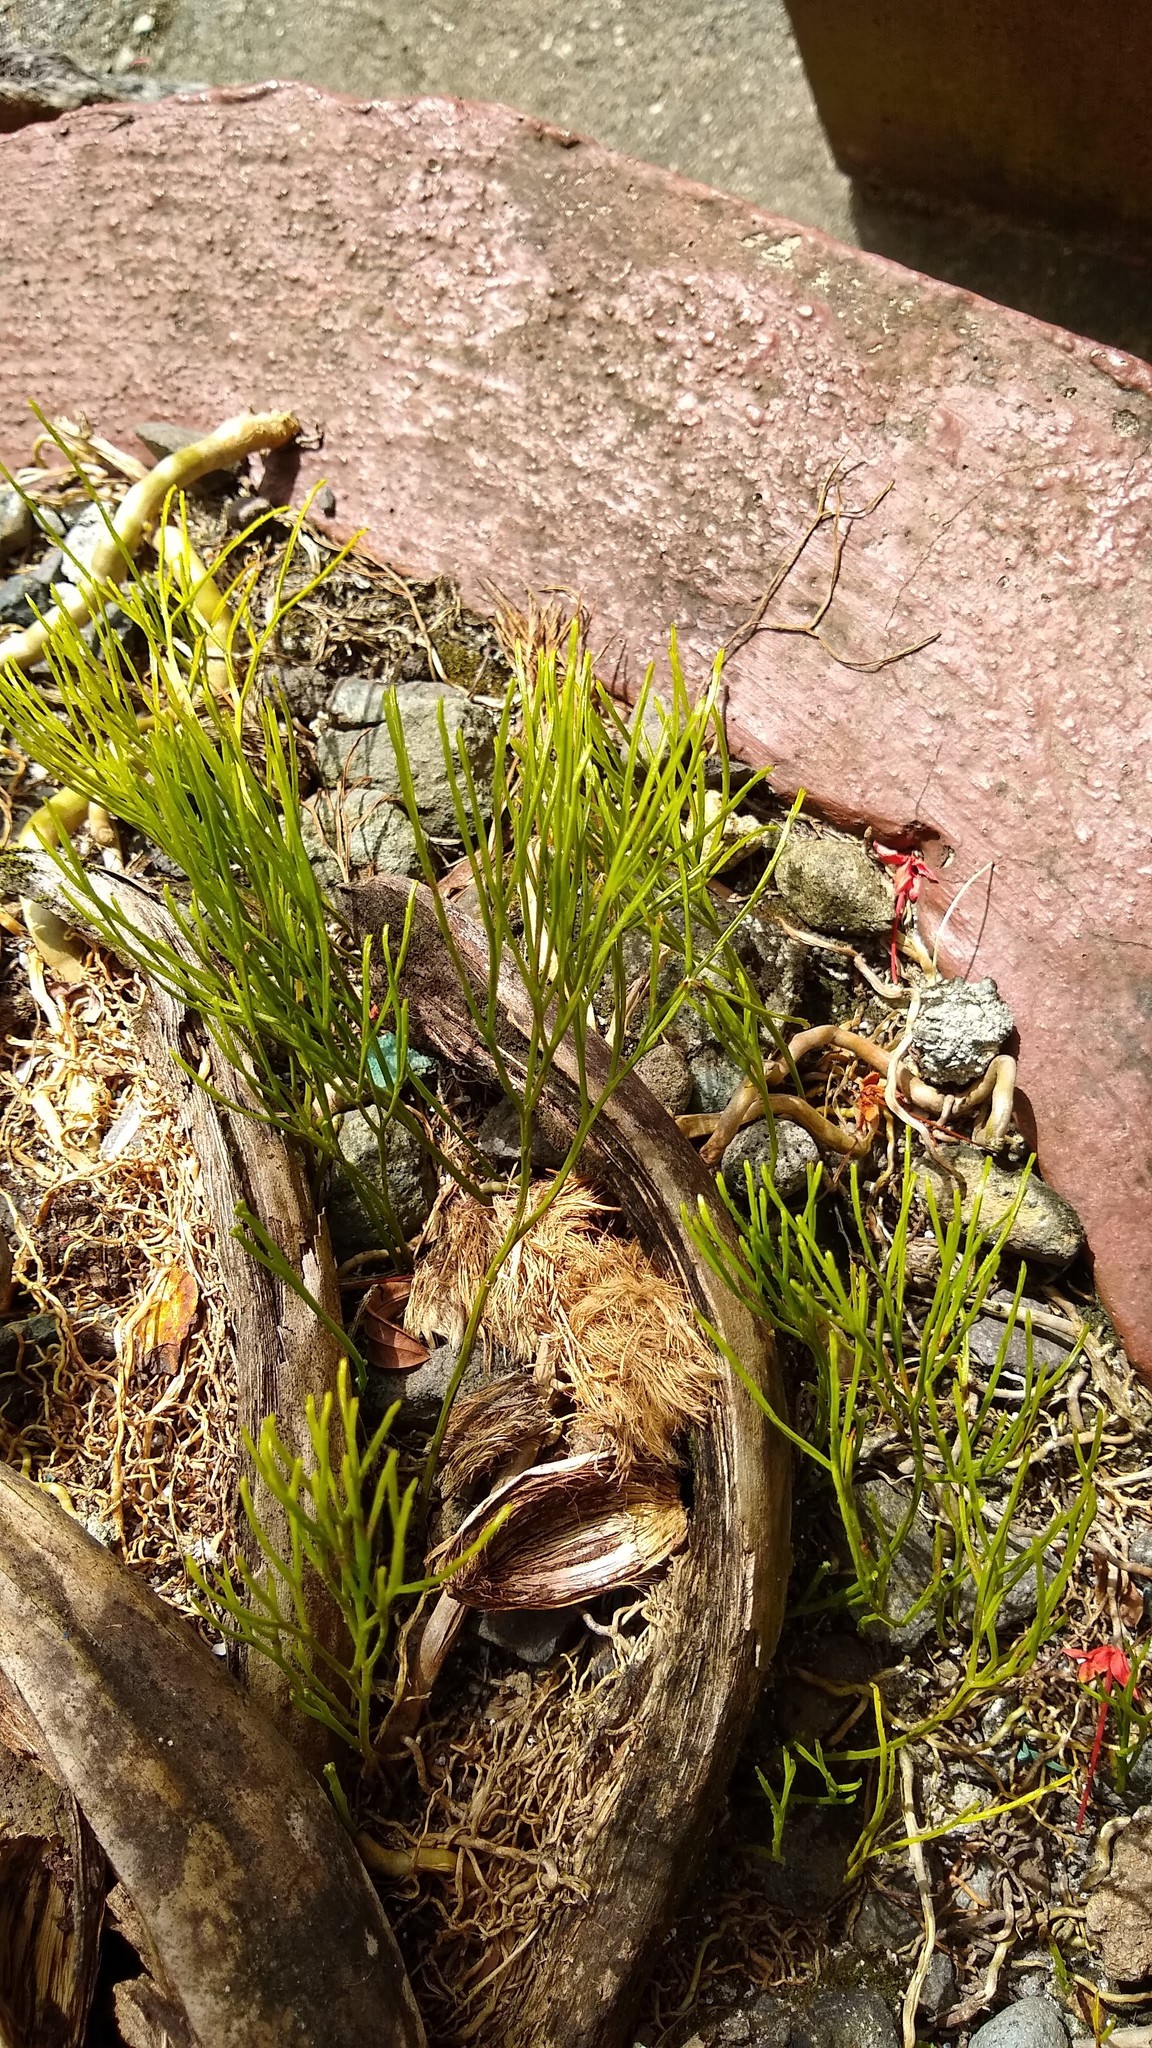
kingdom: Plantae
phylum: Tracheophyta
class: Polypodiopsida
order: Psilotales
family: Psilotaceae
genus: Psilotum
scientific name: Psilotum nudum
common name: Skeleton fork fern
